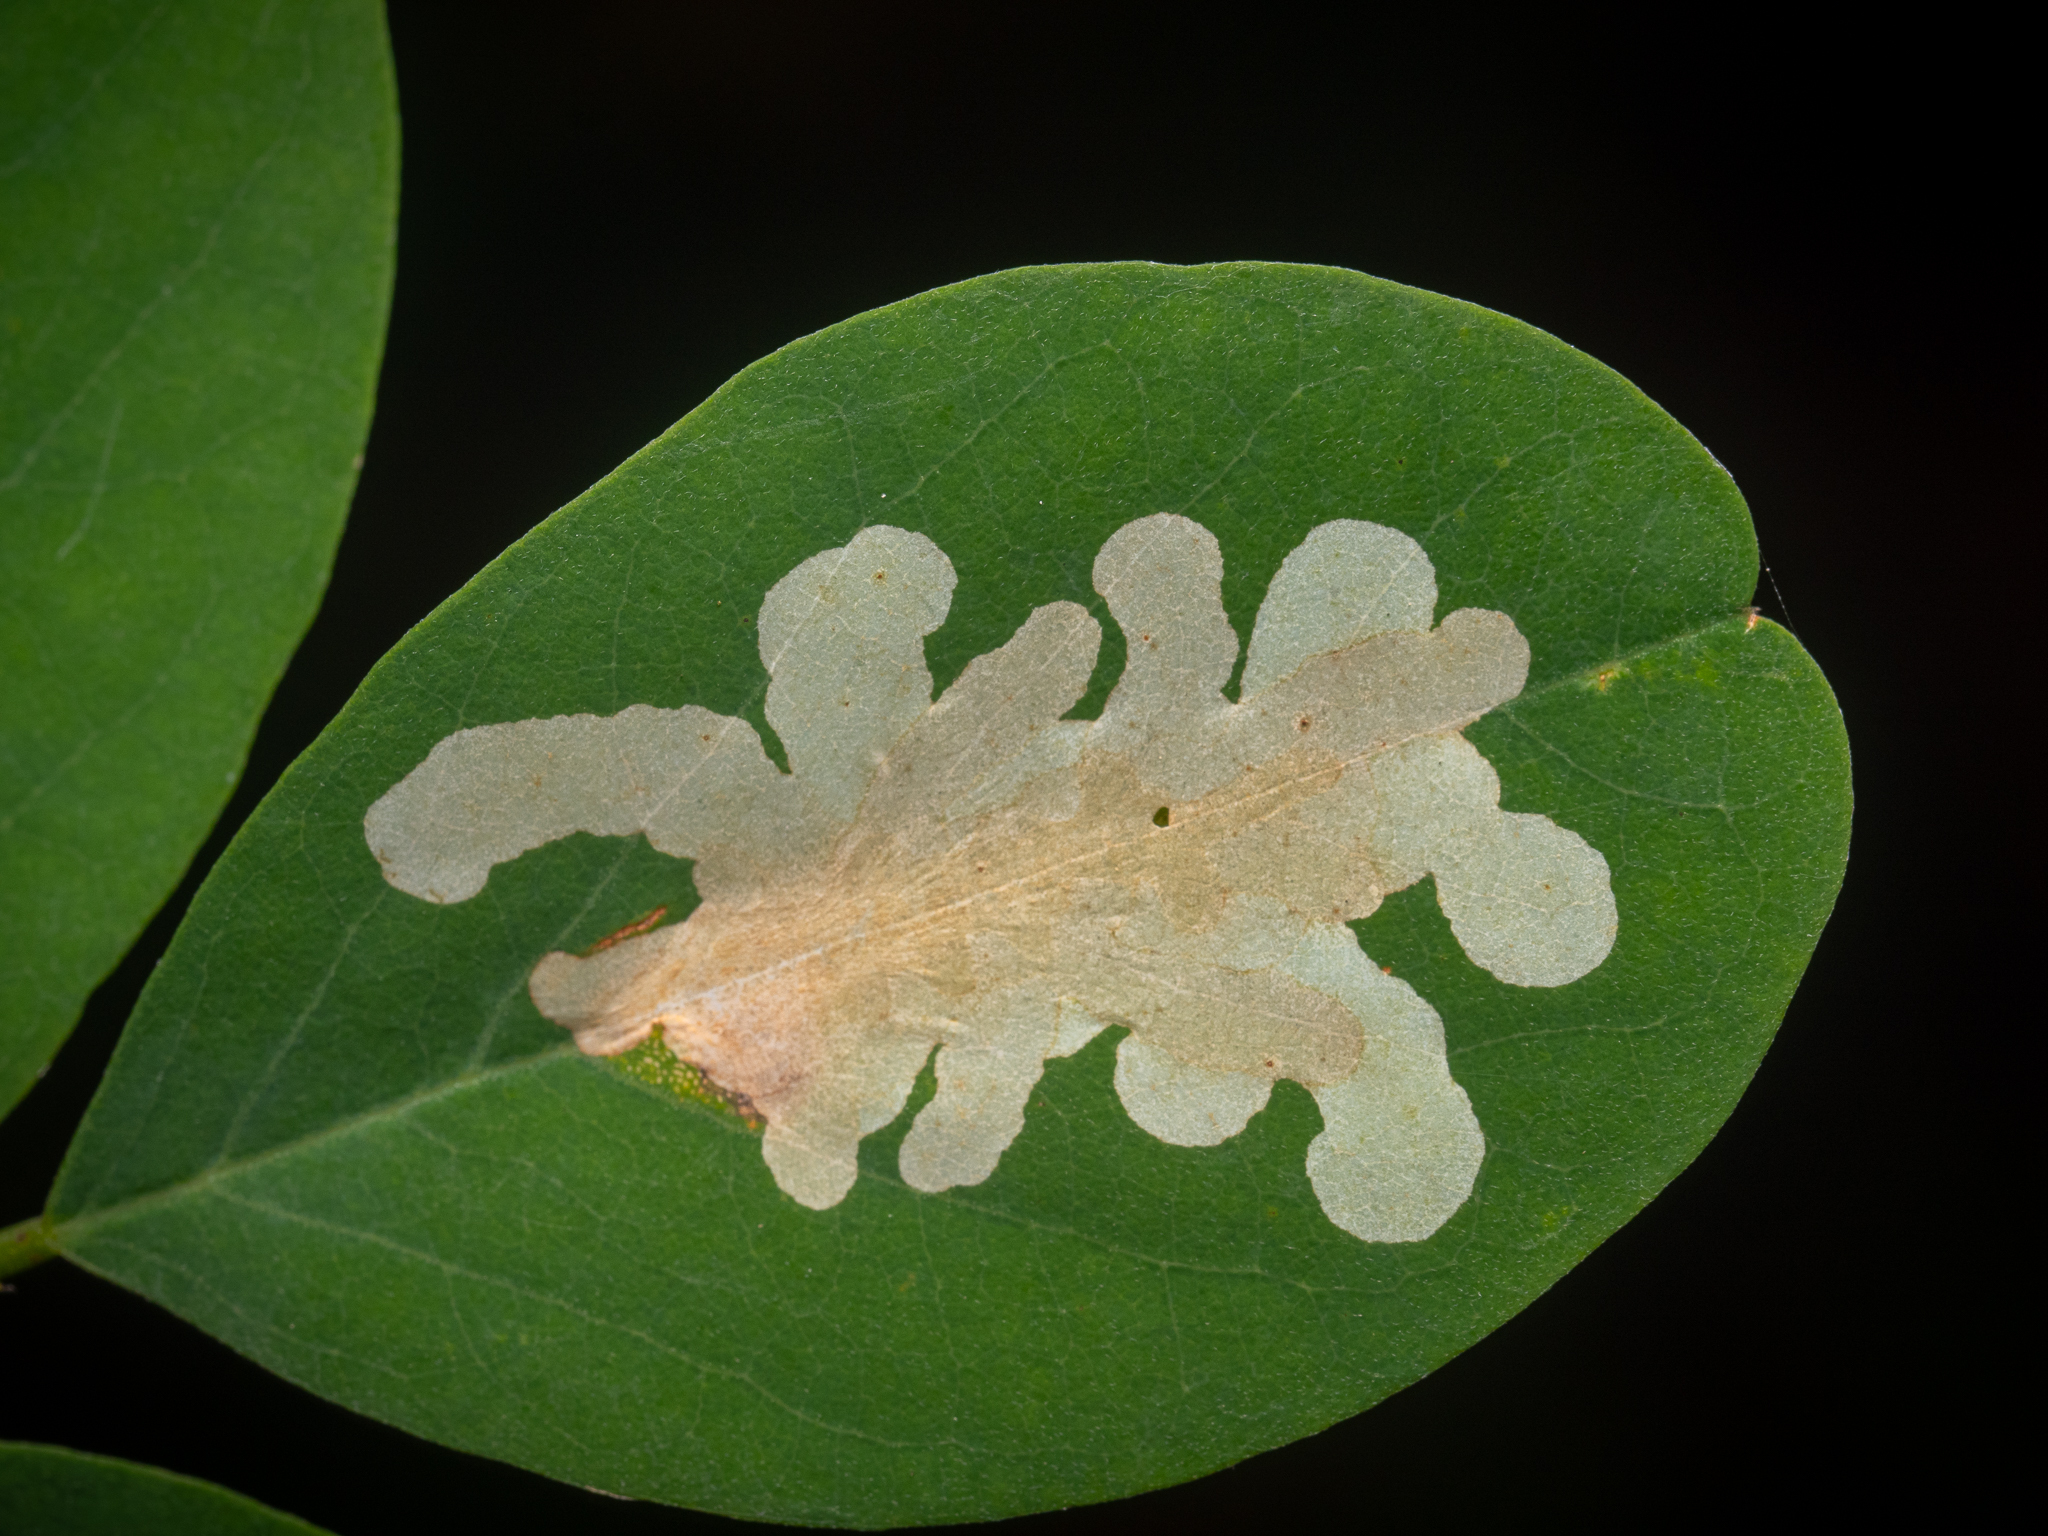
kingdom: Animalia
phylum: Arthropoda
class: Insecta
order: Lepidoptera
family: Gracillariidae
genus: Parectopa
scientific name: Parectopa robiniella
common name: Locust digitate leafminer
